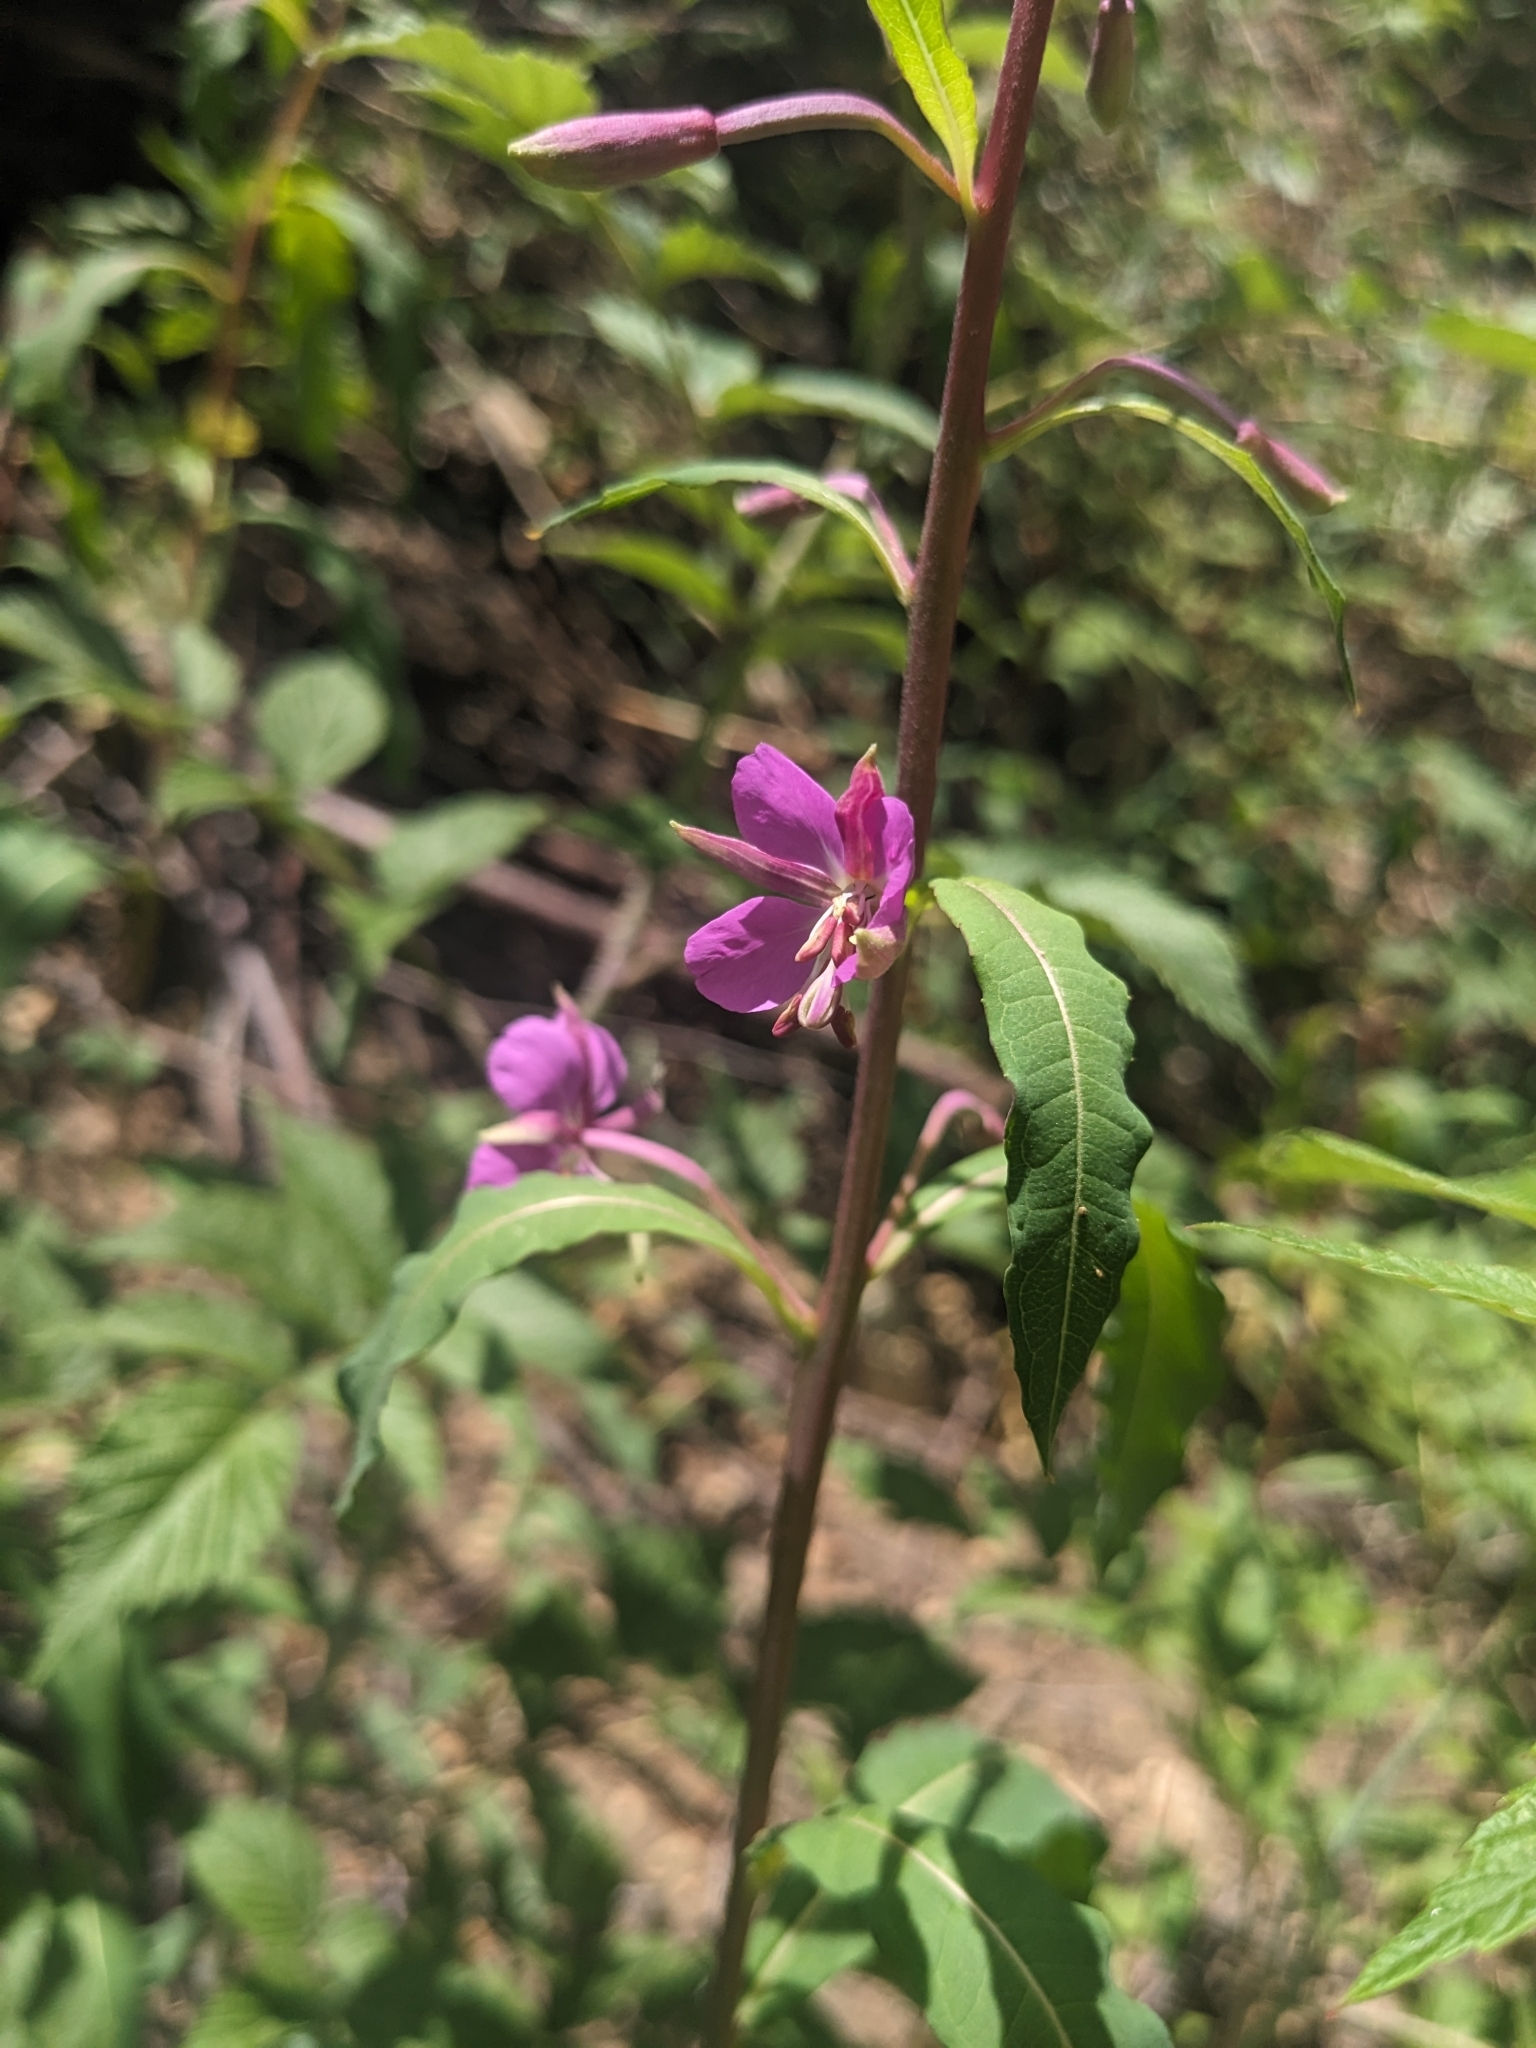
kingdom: Plantae
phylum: Tracheophyta
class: Magnoliopsida
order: Myrtales
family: Onagraceae
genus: Chamaenerion
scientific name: Chamaenerion angustifolium
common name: Fireweed
